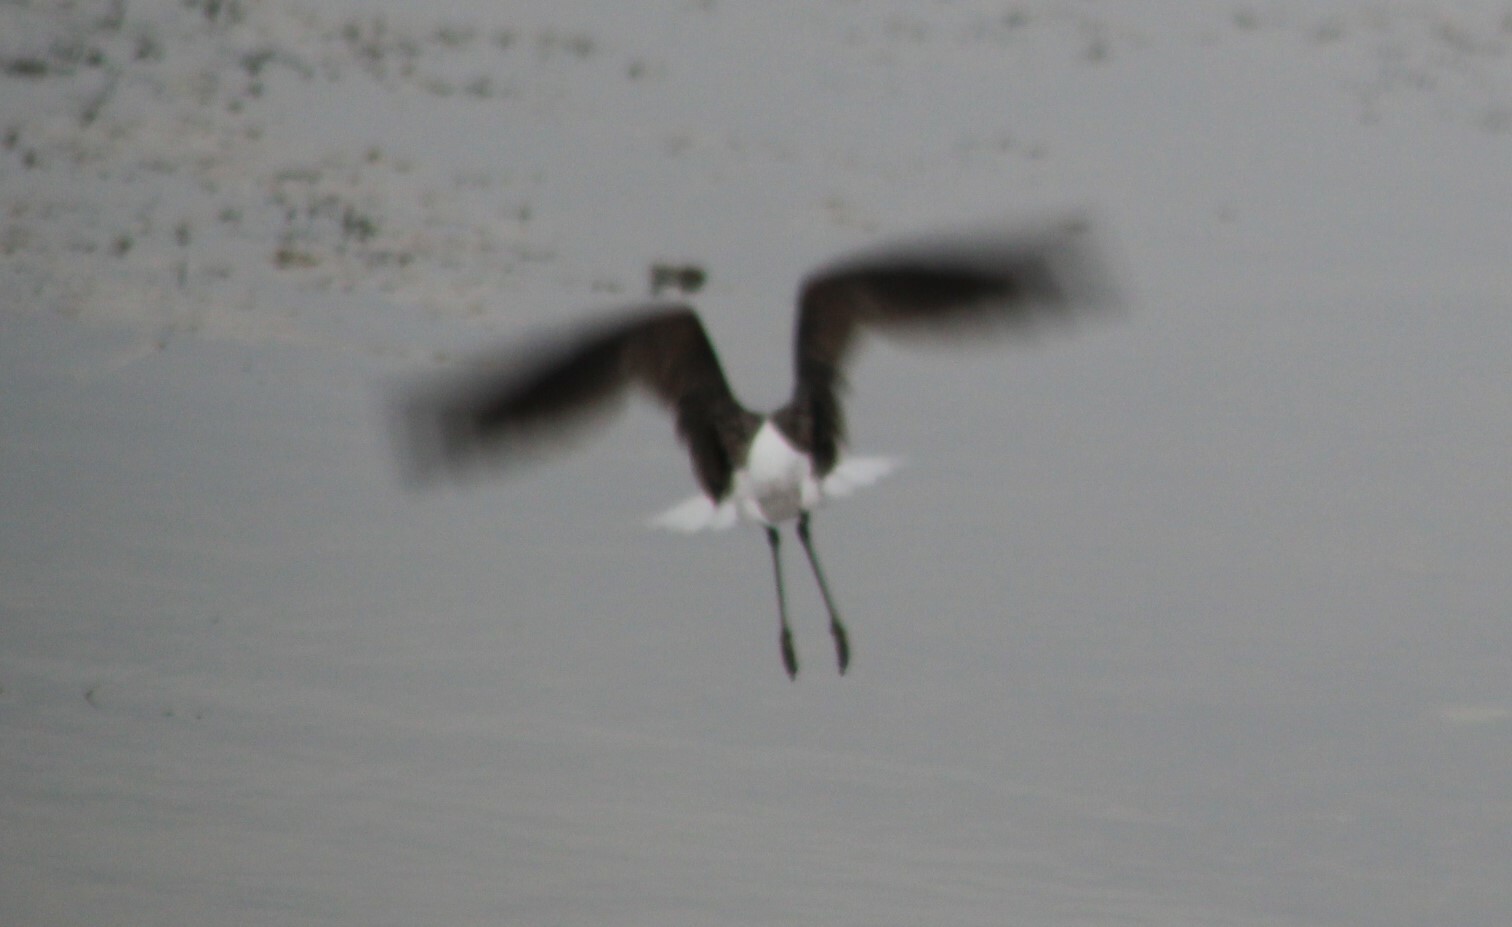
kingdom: Animalia
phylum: Chordata
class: Aves
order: Charadriiformes
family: Scolopacidae
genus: Tringa
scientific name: Tringa nebularia
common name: Common greenshank
